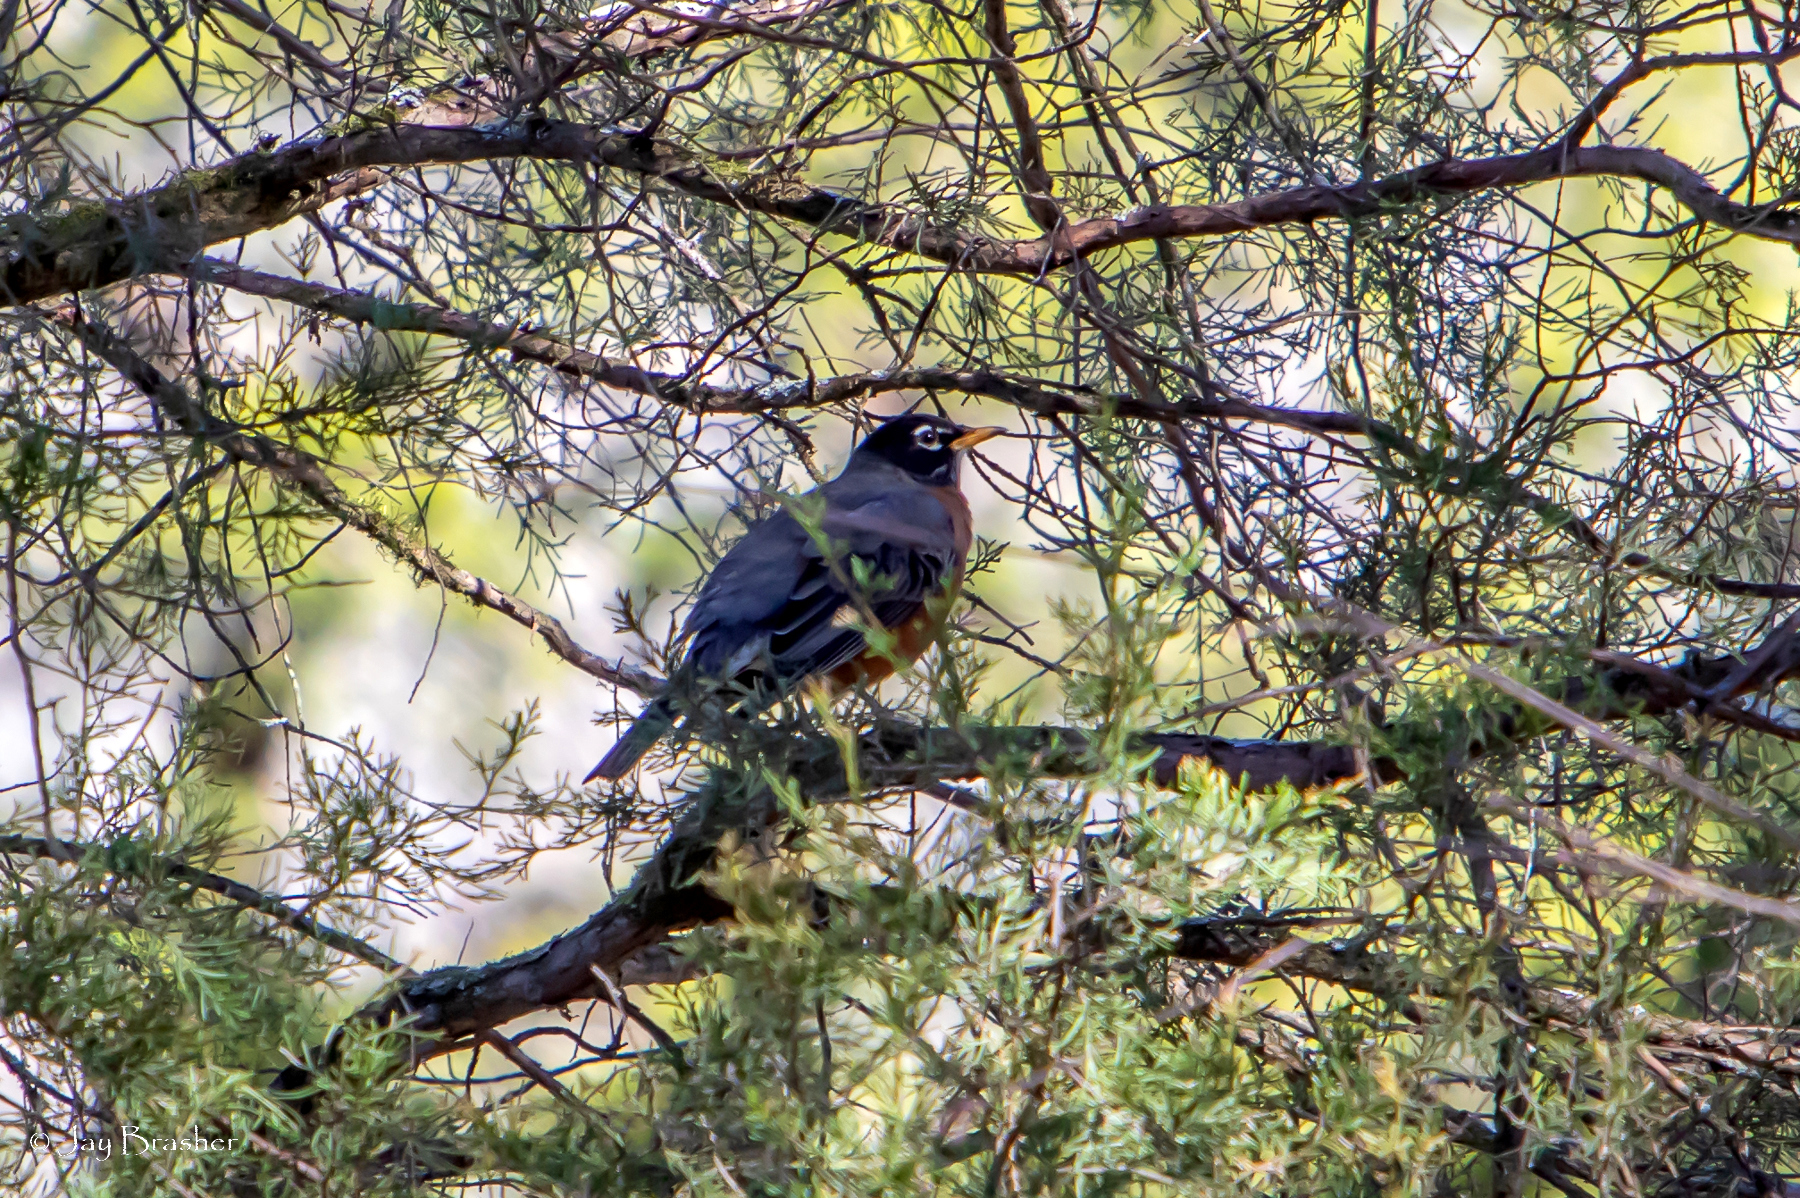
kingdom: Animalia
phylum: Chordata
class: Aves
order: Passeriformes
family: Turdidae
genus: Turdus
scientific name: Turdus migratorius
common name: American robin
